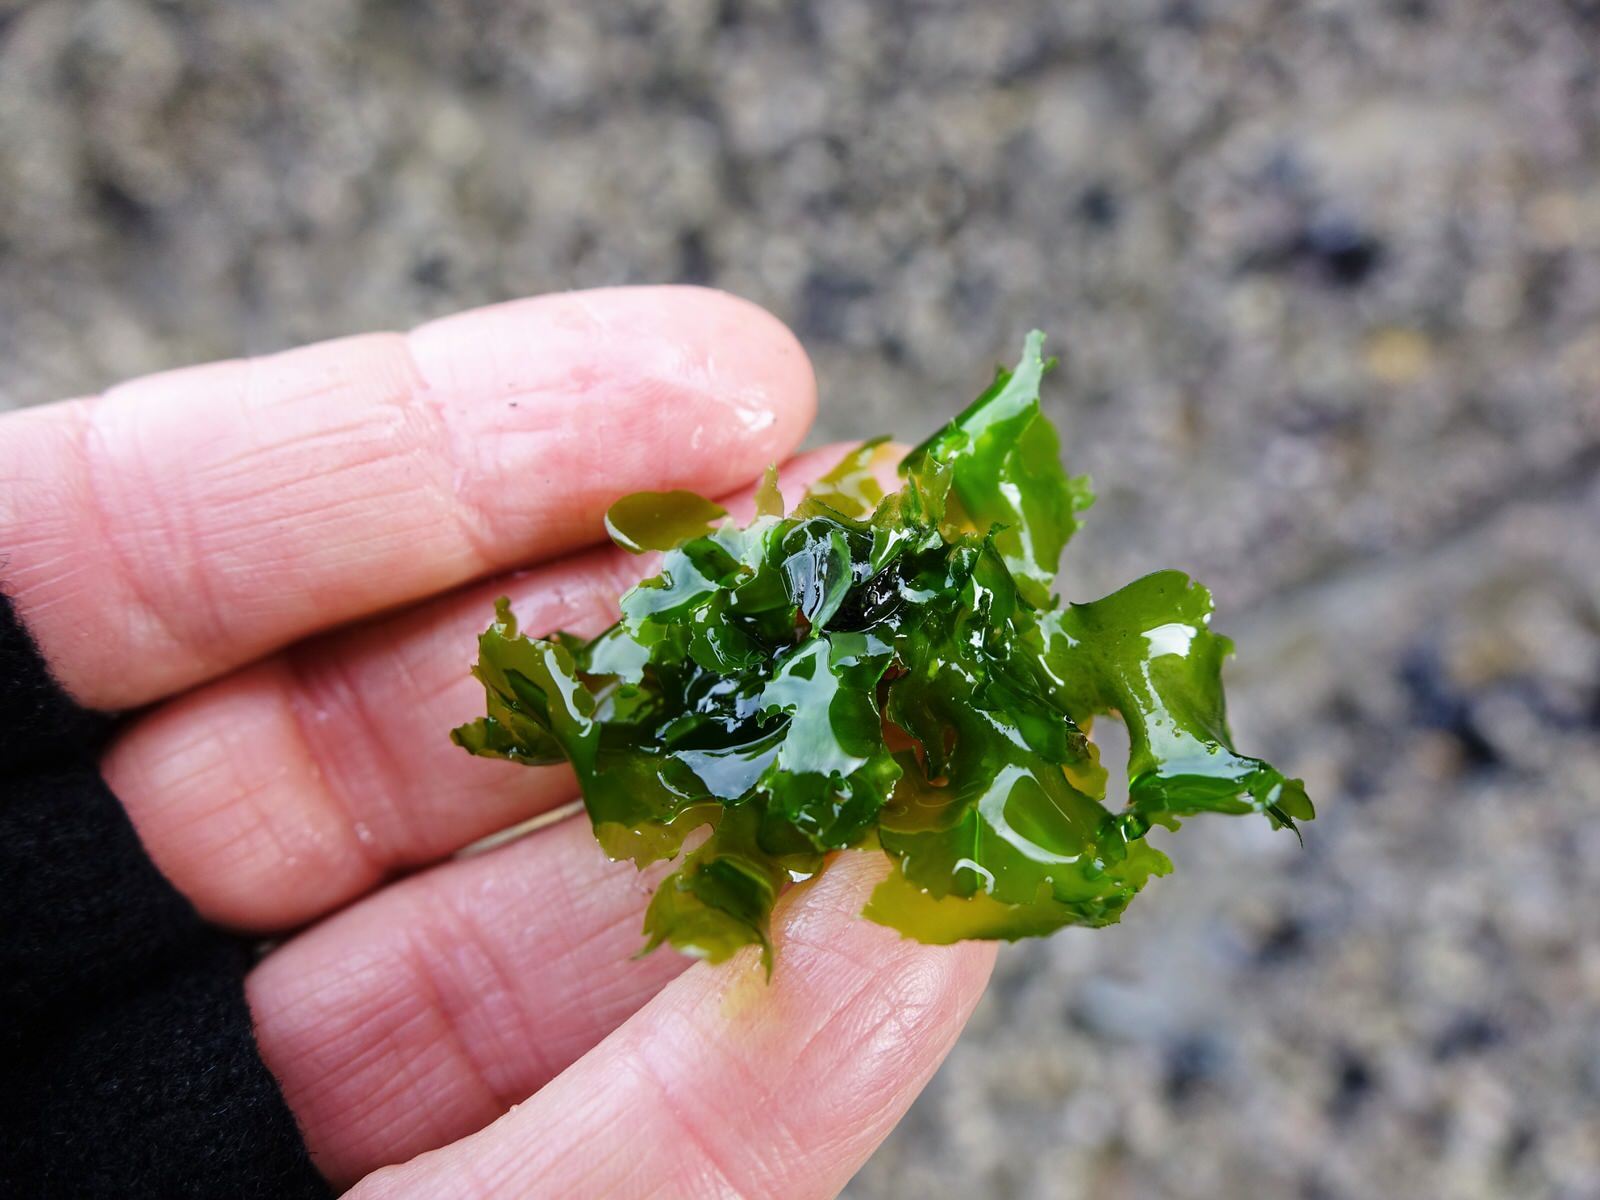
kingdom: Plantae
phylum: Chlorophyta
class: Ulvophyceae
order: Ulvales
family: Ulvaceae
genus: Ulva
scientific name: Ulva
